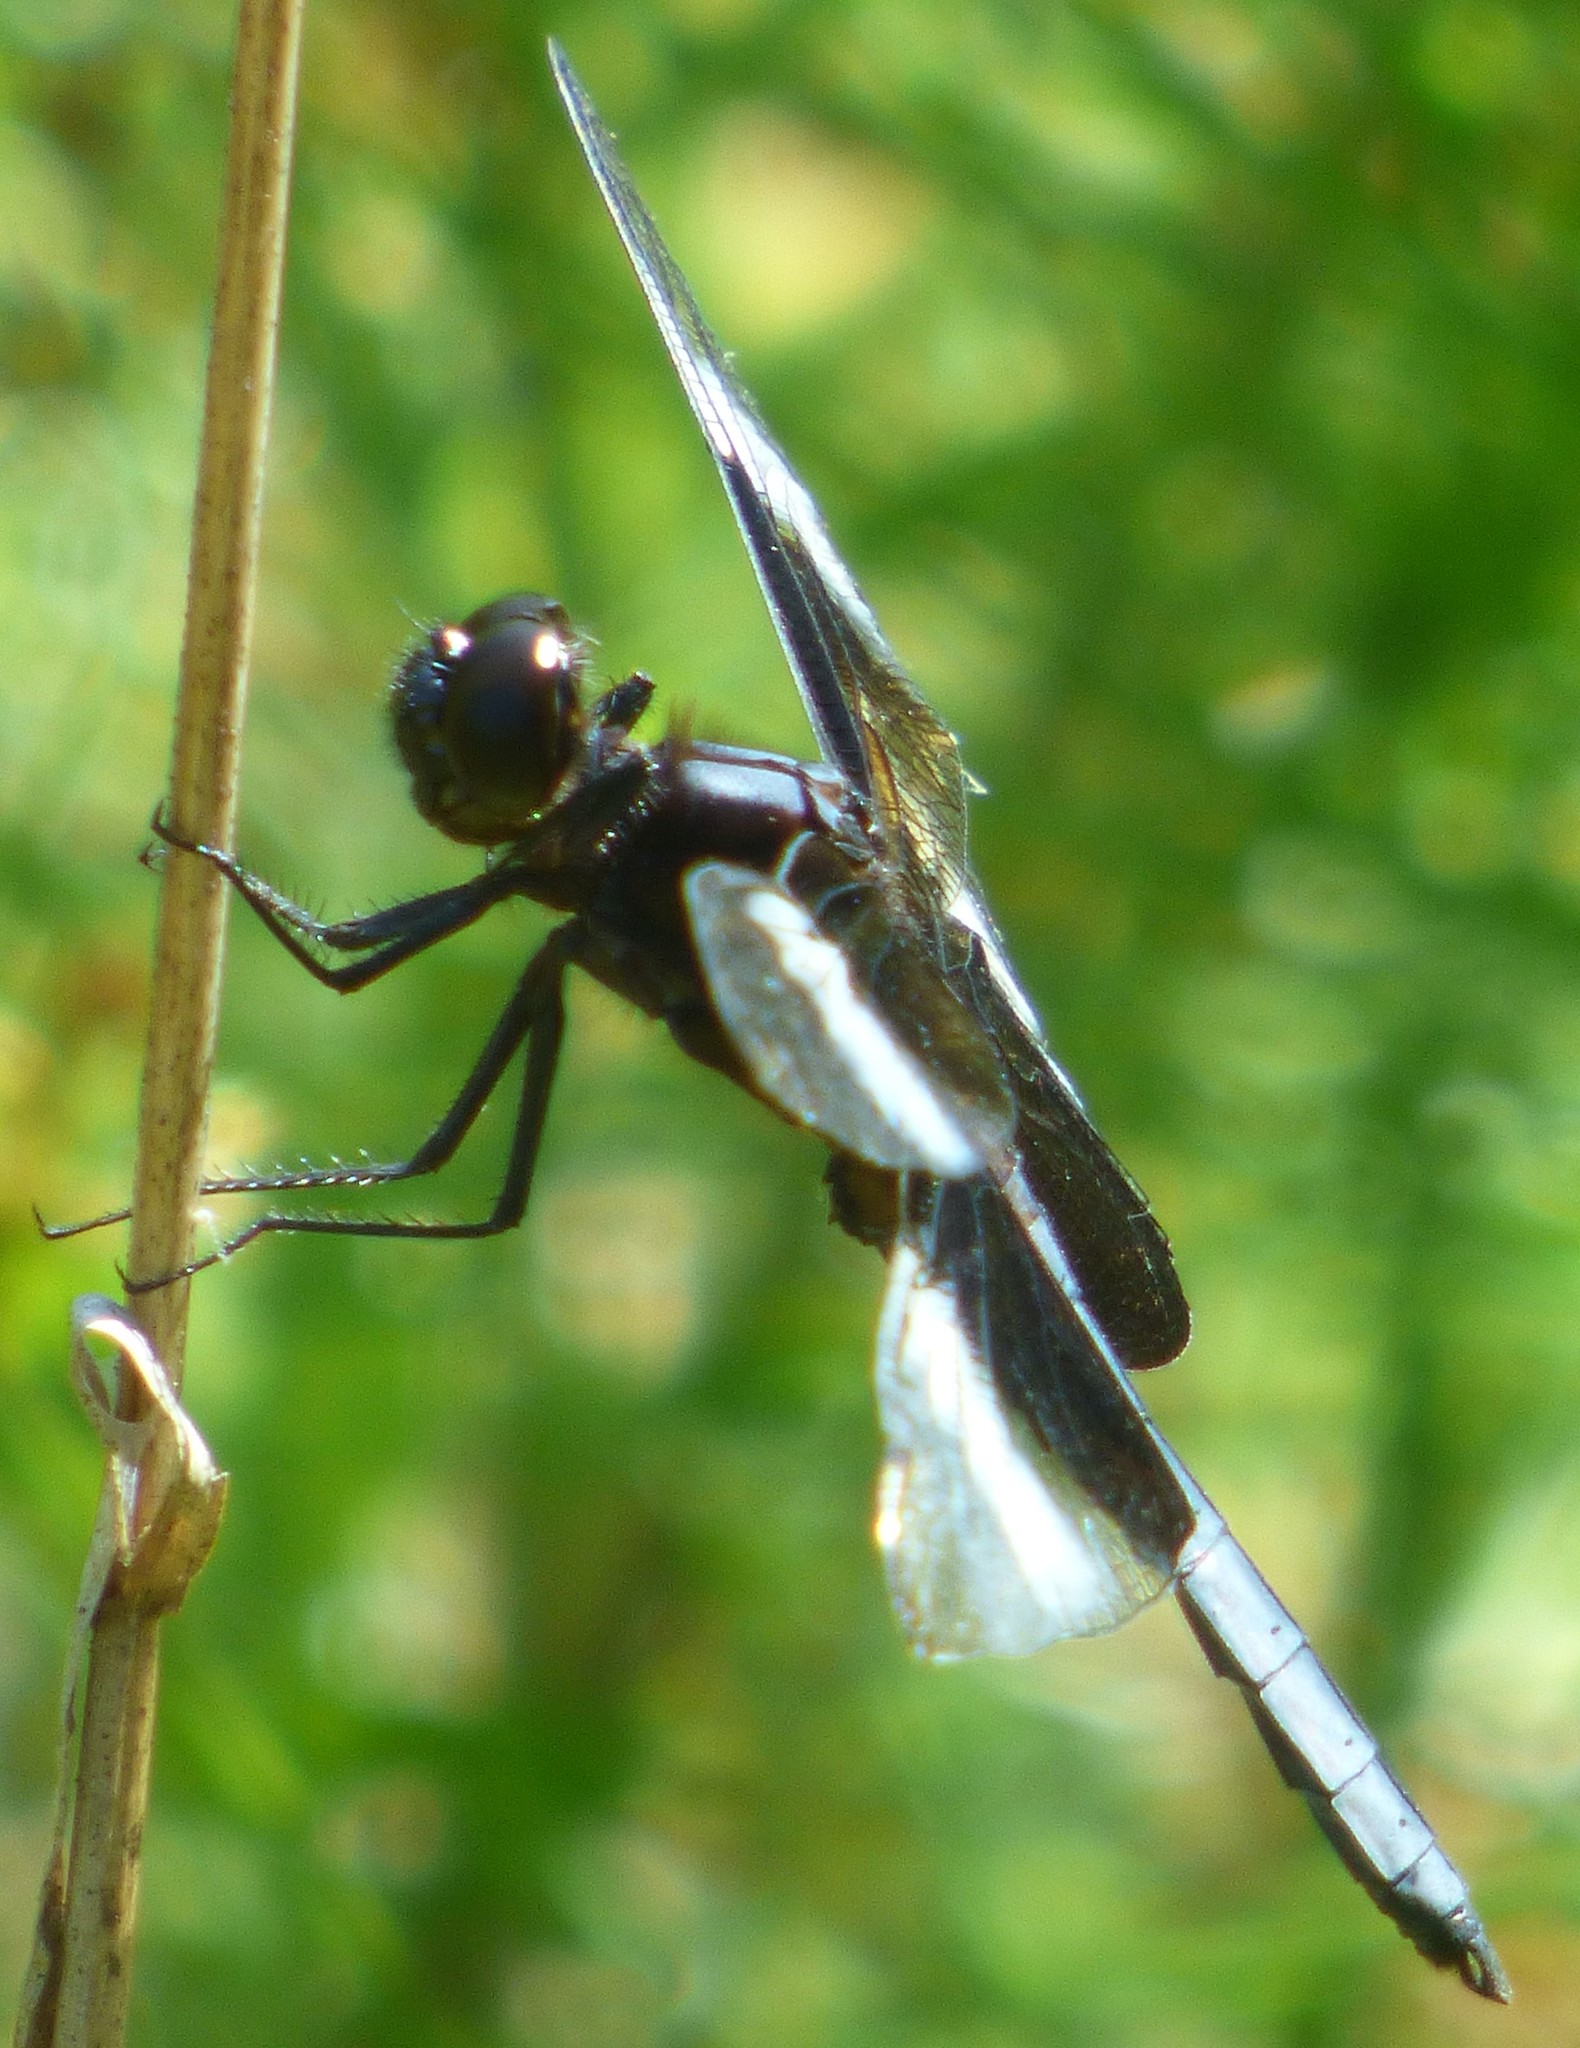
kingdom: Animalia
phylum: Arthropoda
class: Insecta
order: Odonata
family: Libellulidae
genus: Libellula
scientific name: Libellula luctuosa
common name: Widow skimmer
